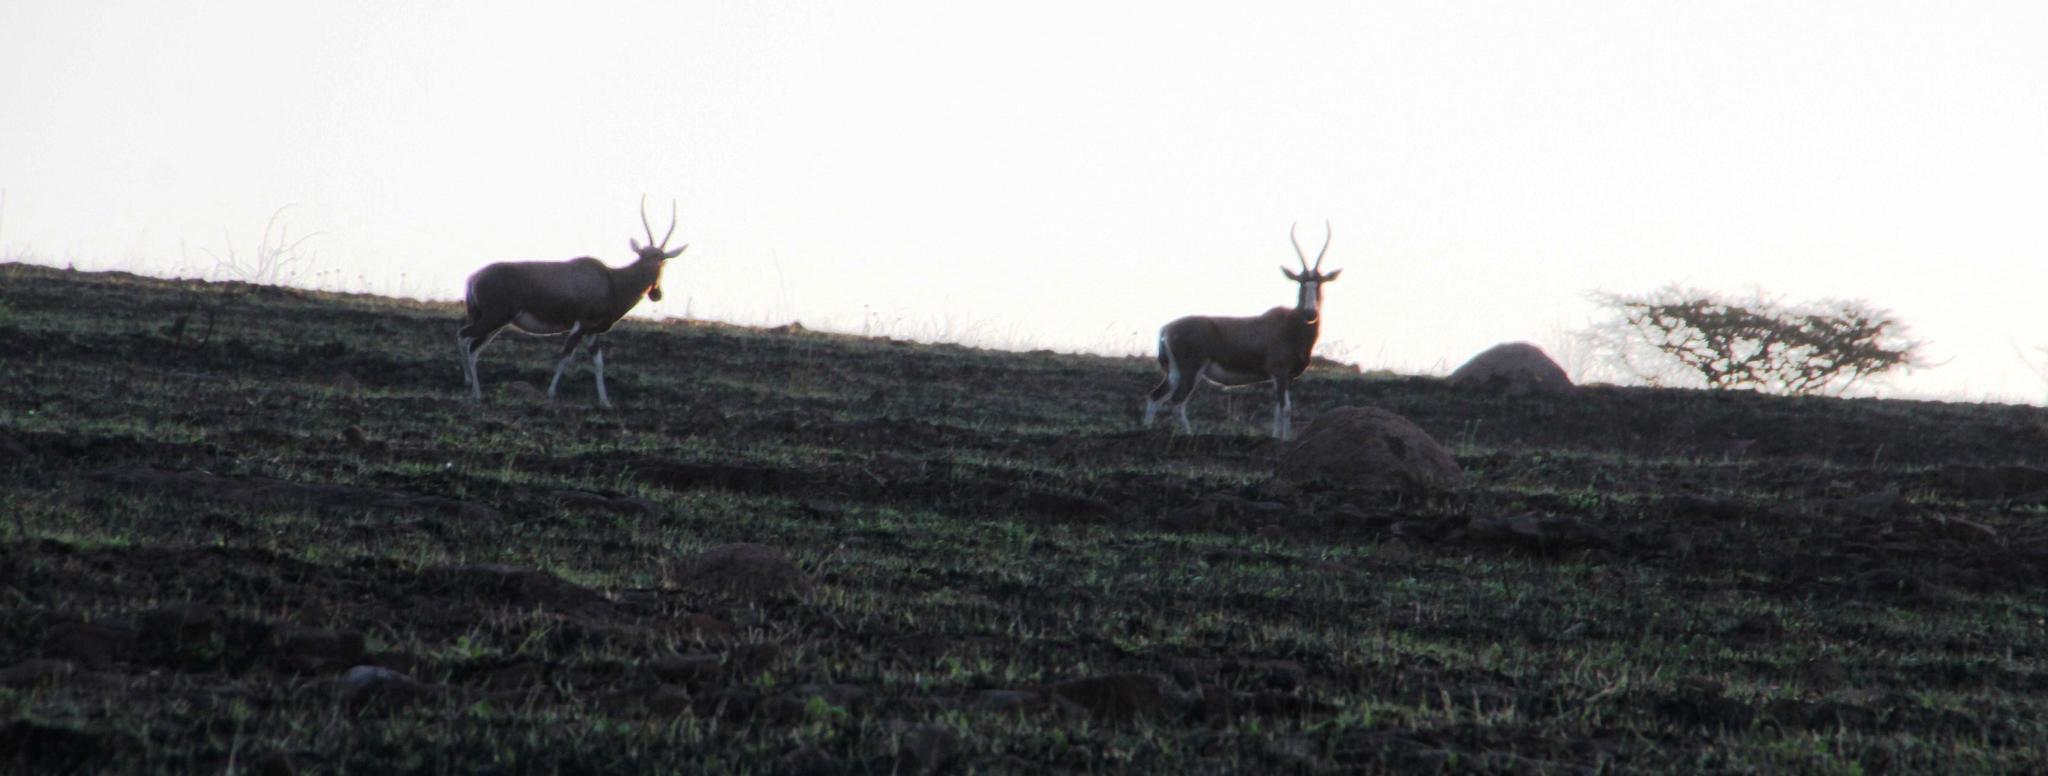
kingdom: Animalia
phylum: Chordata
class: Mammalia
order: Artiodactyla
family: Bovidae
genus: Damaliscus
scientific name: Damaliscus pygargus
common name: Bontebok
